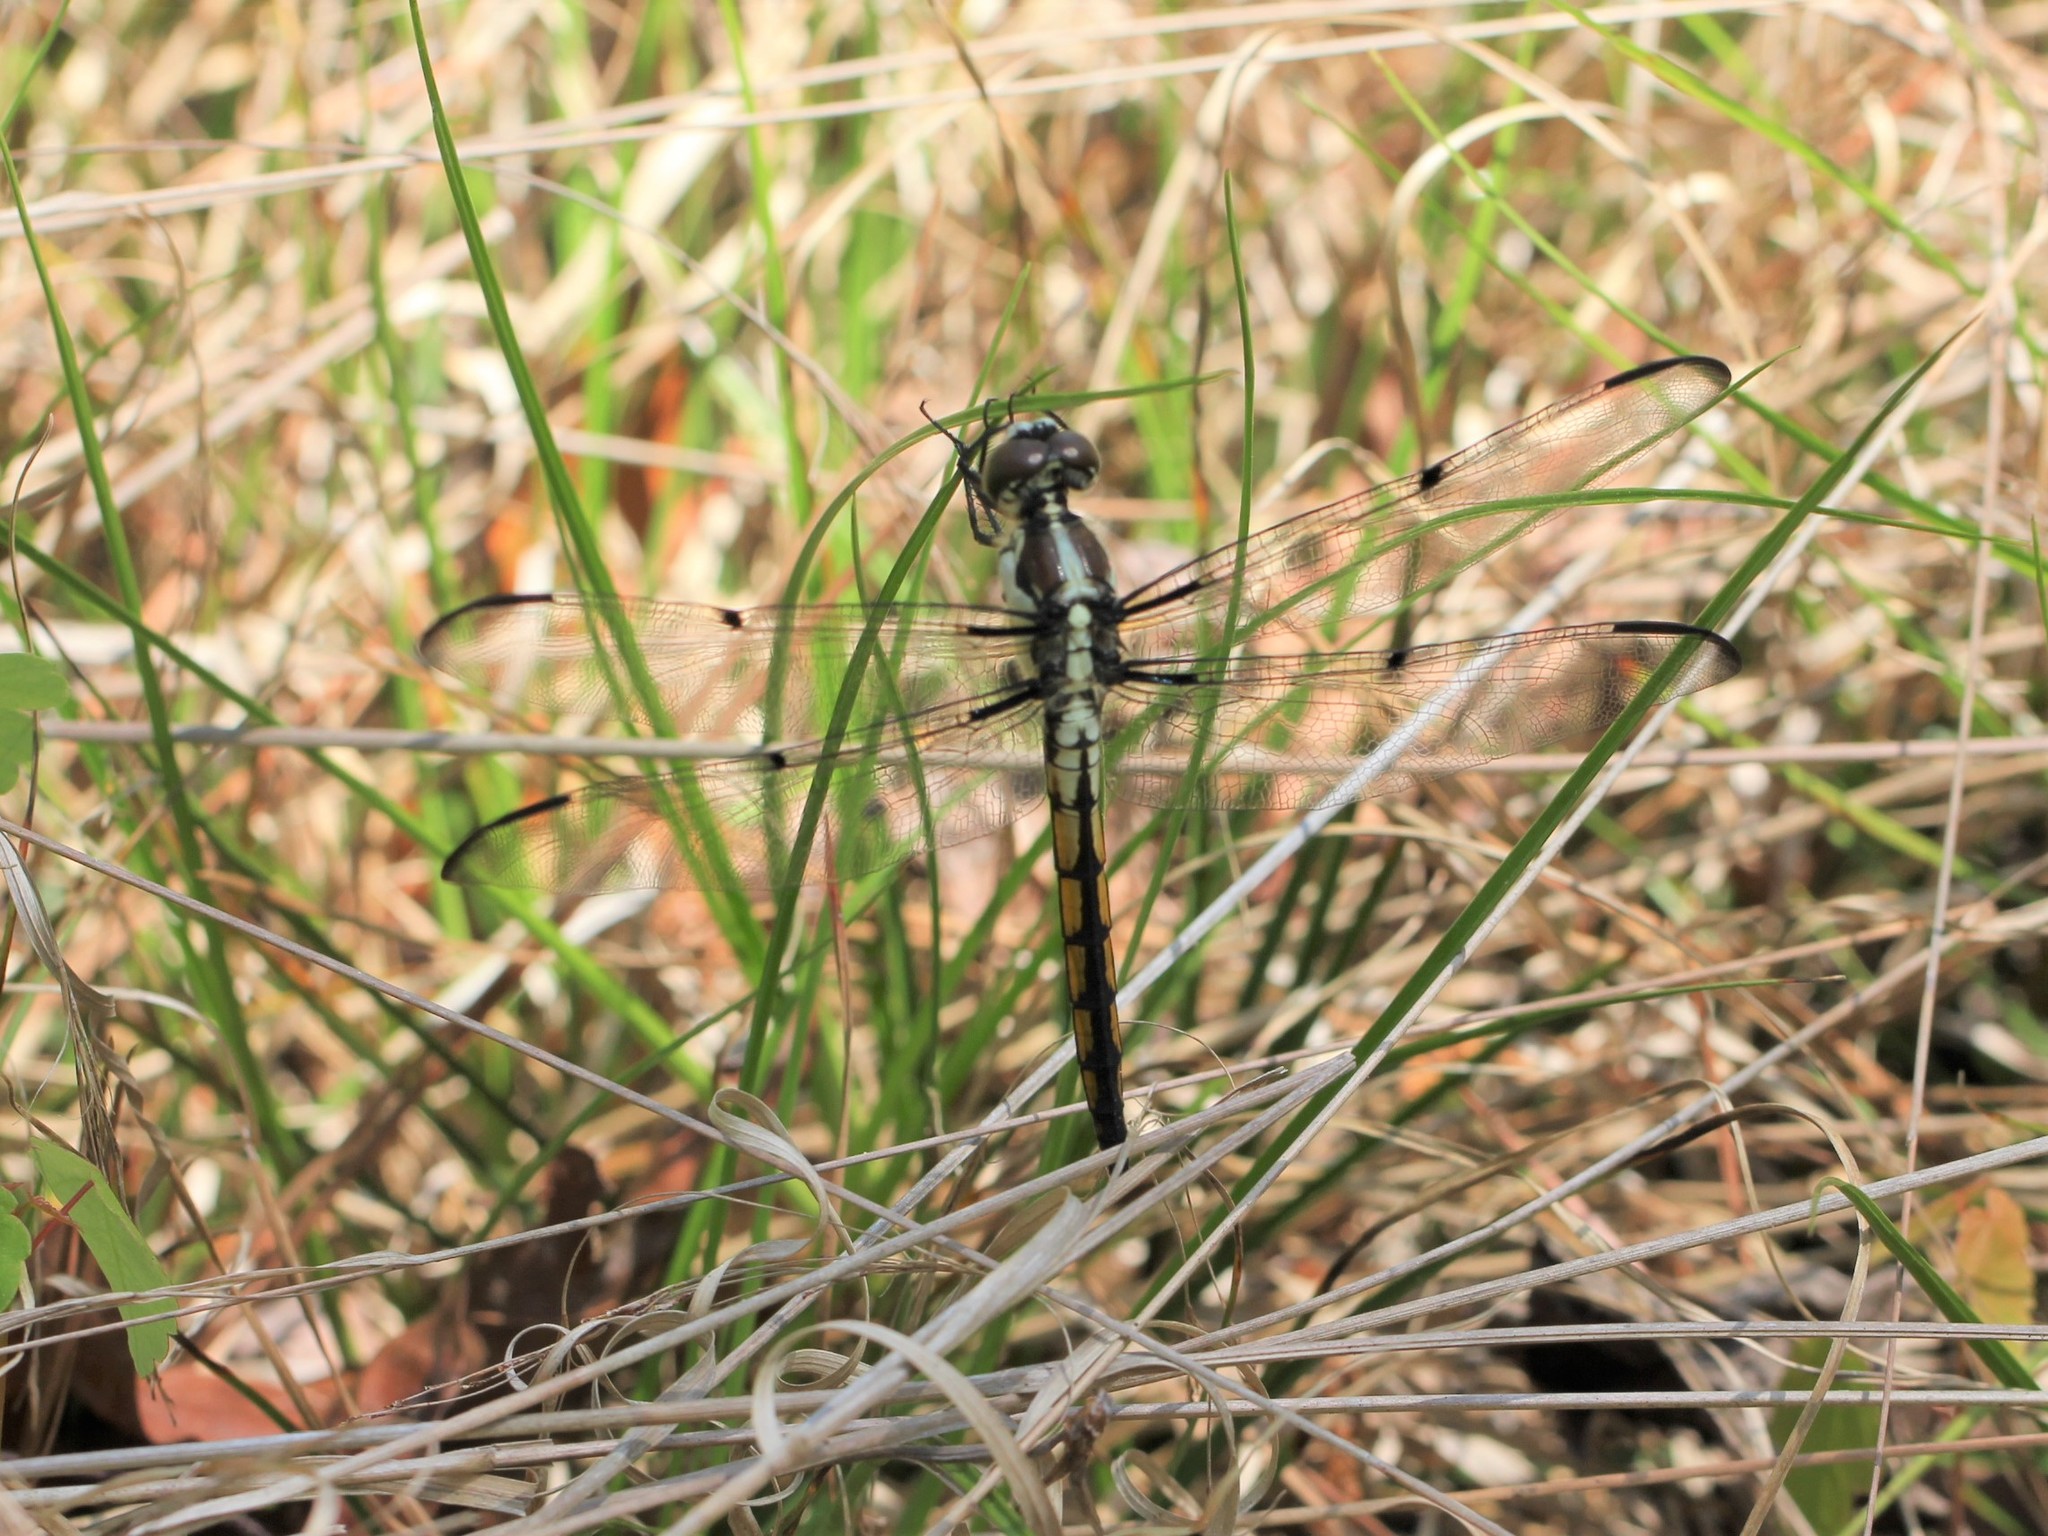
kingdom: Animalia
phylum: Arthropoda
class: Insecta
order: Odonata
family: Libellulidae
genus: Libellula
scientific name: Libellula vibrans
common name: Great blue skimmer
